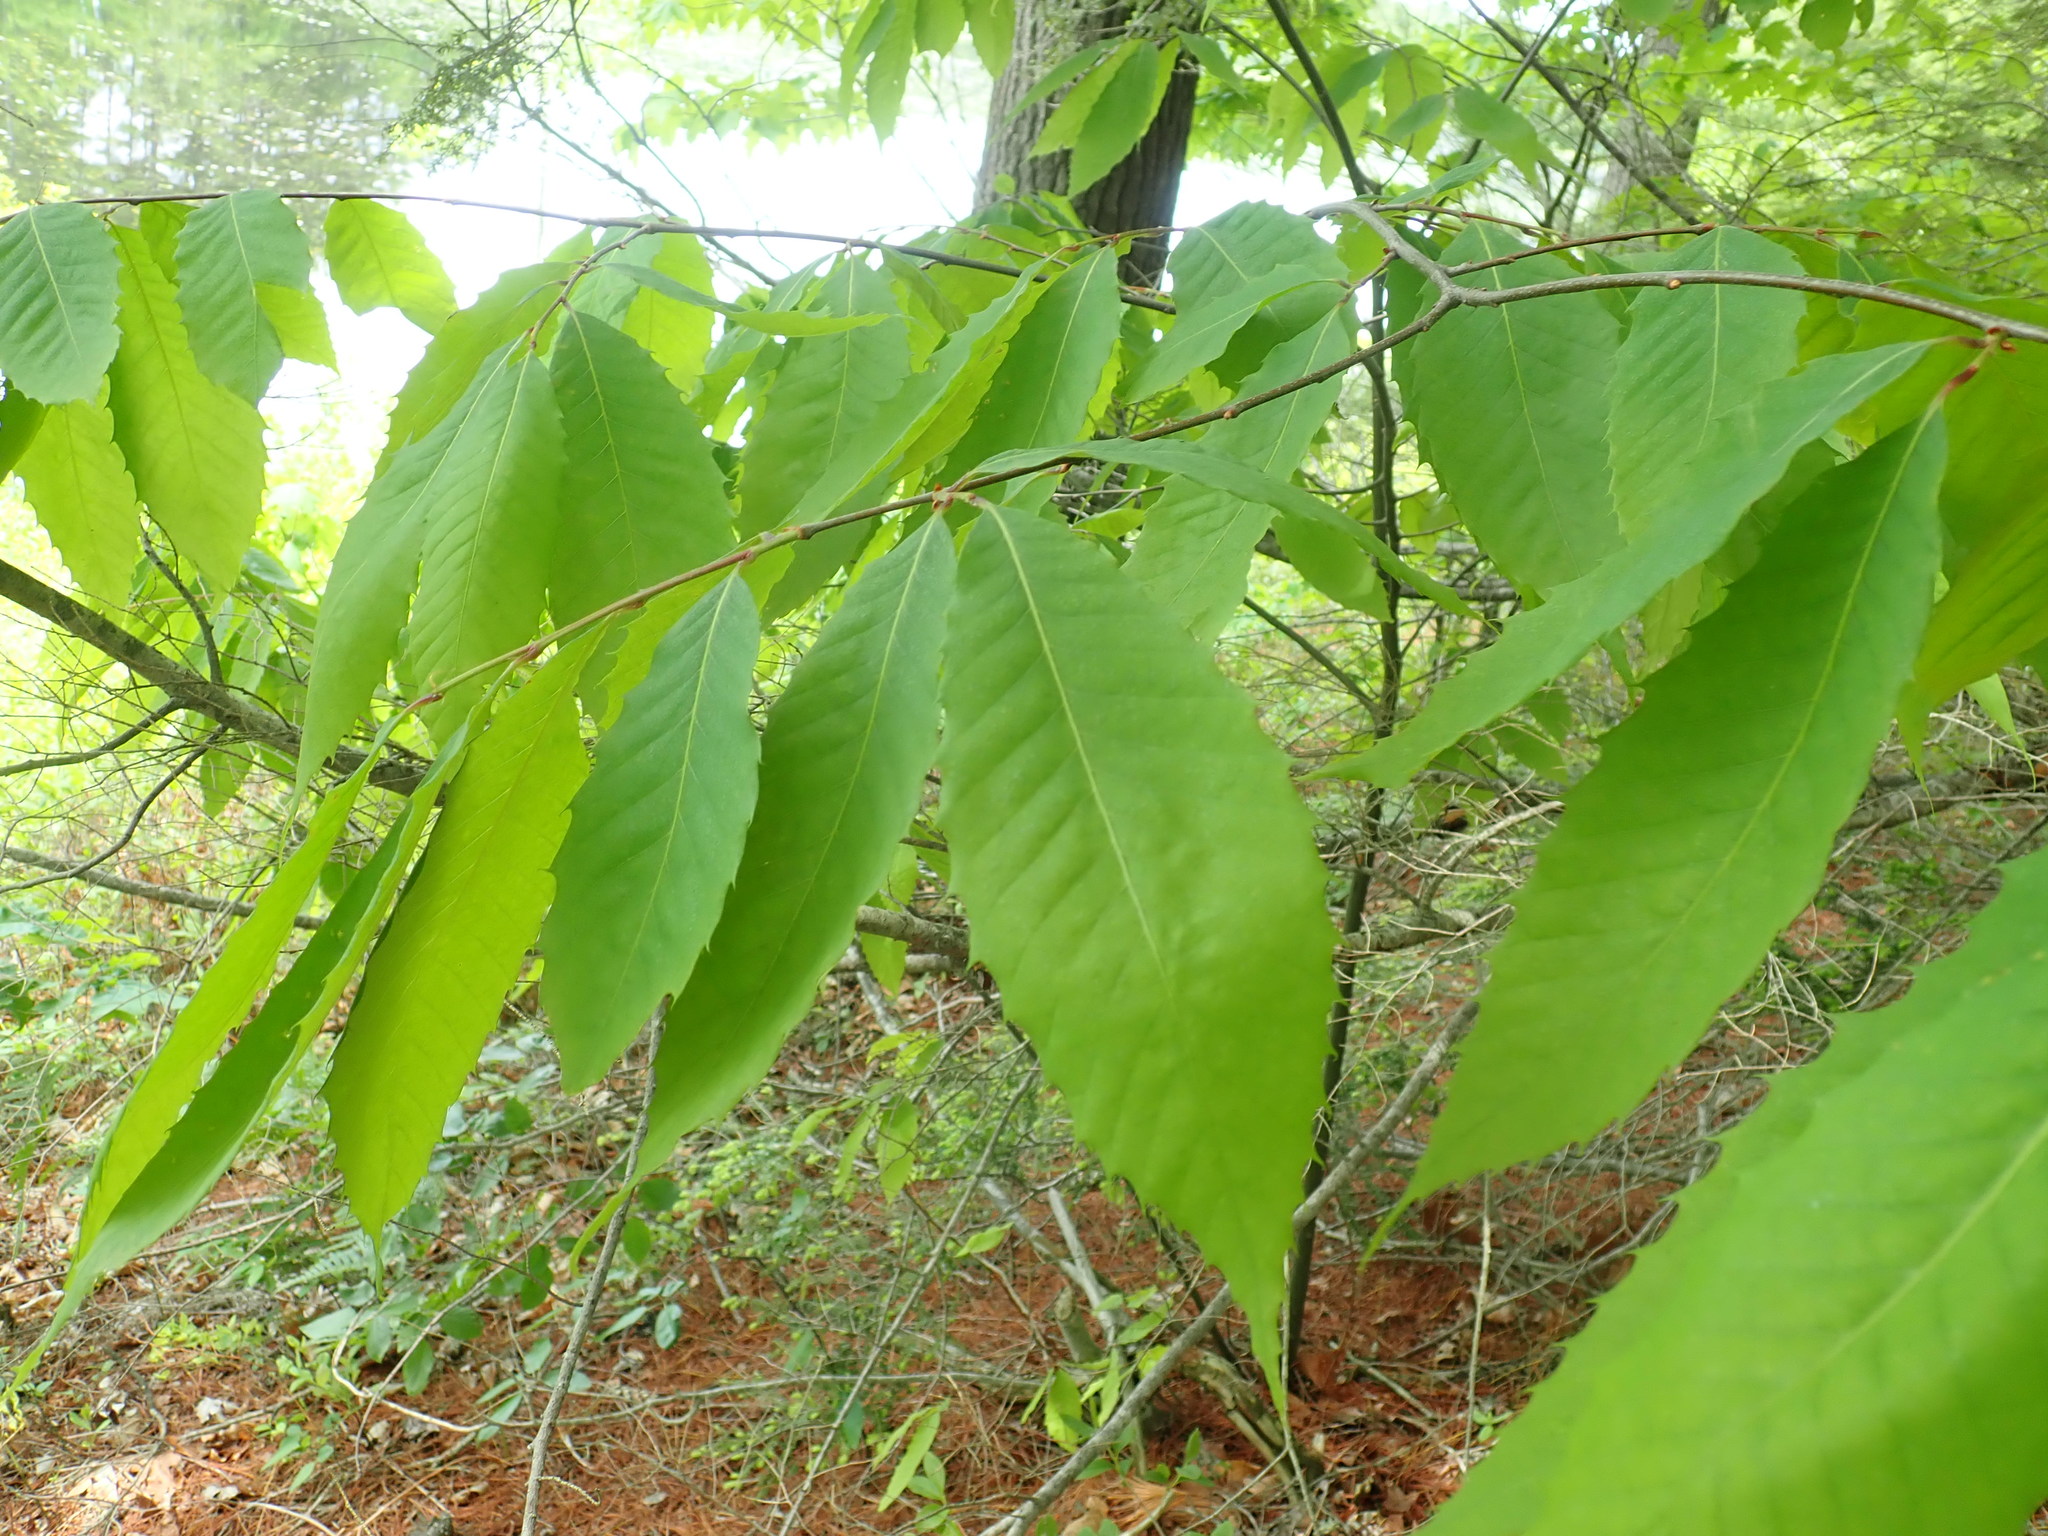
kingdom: Plantae
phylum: Tracheophyta
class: Magnoliopsida
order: Fagales
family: Fagaceae
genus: Castanea
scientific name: Castanea dentata
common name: American chestnut
